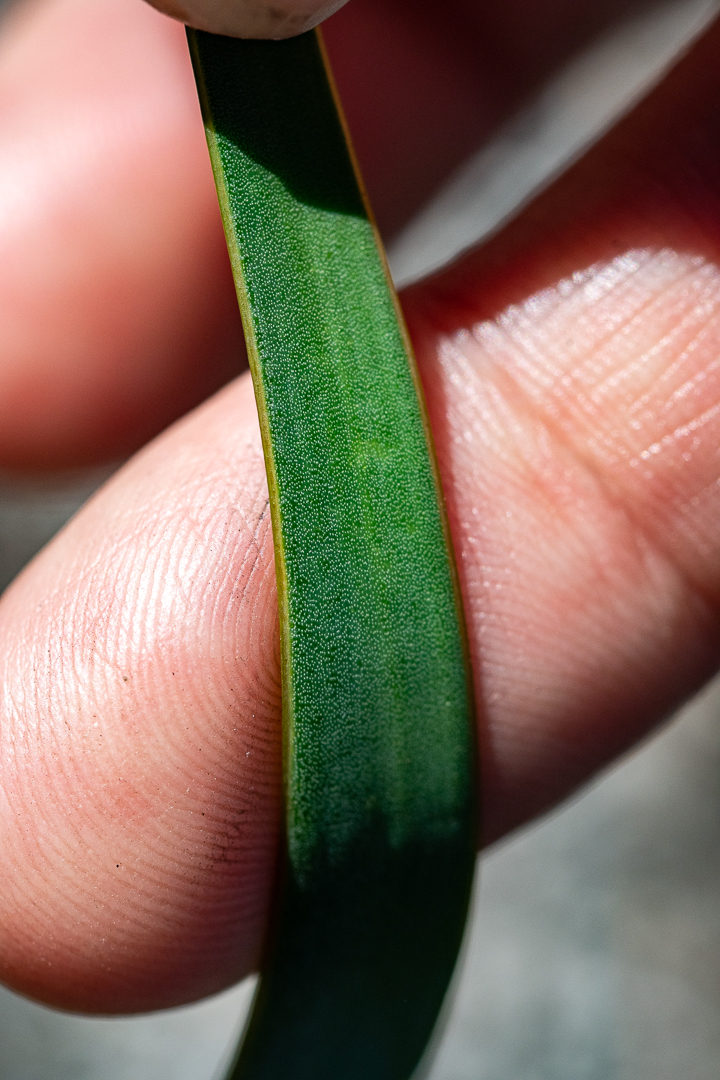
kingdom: Plantae
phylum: Tracheophyta
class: Magnoliopsida
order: Asterales
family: Asteraceae
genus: Corymbium
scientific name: Corymbium glabrum
